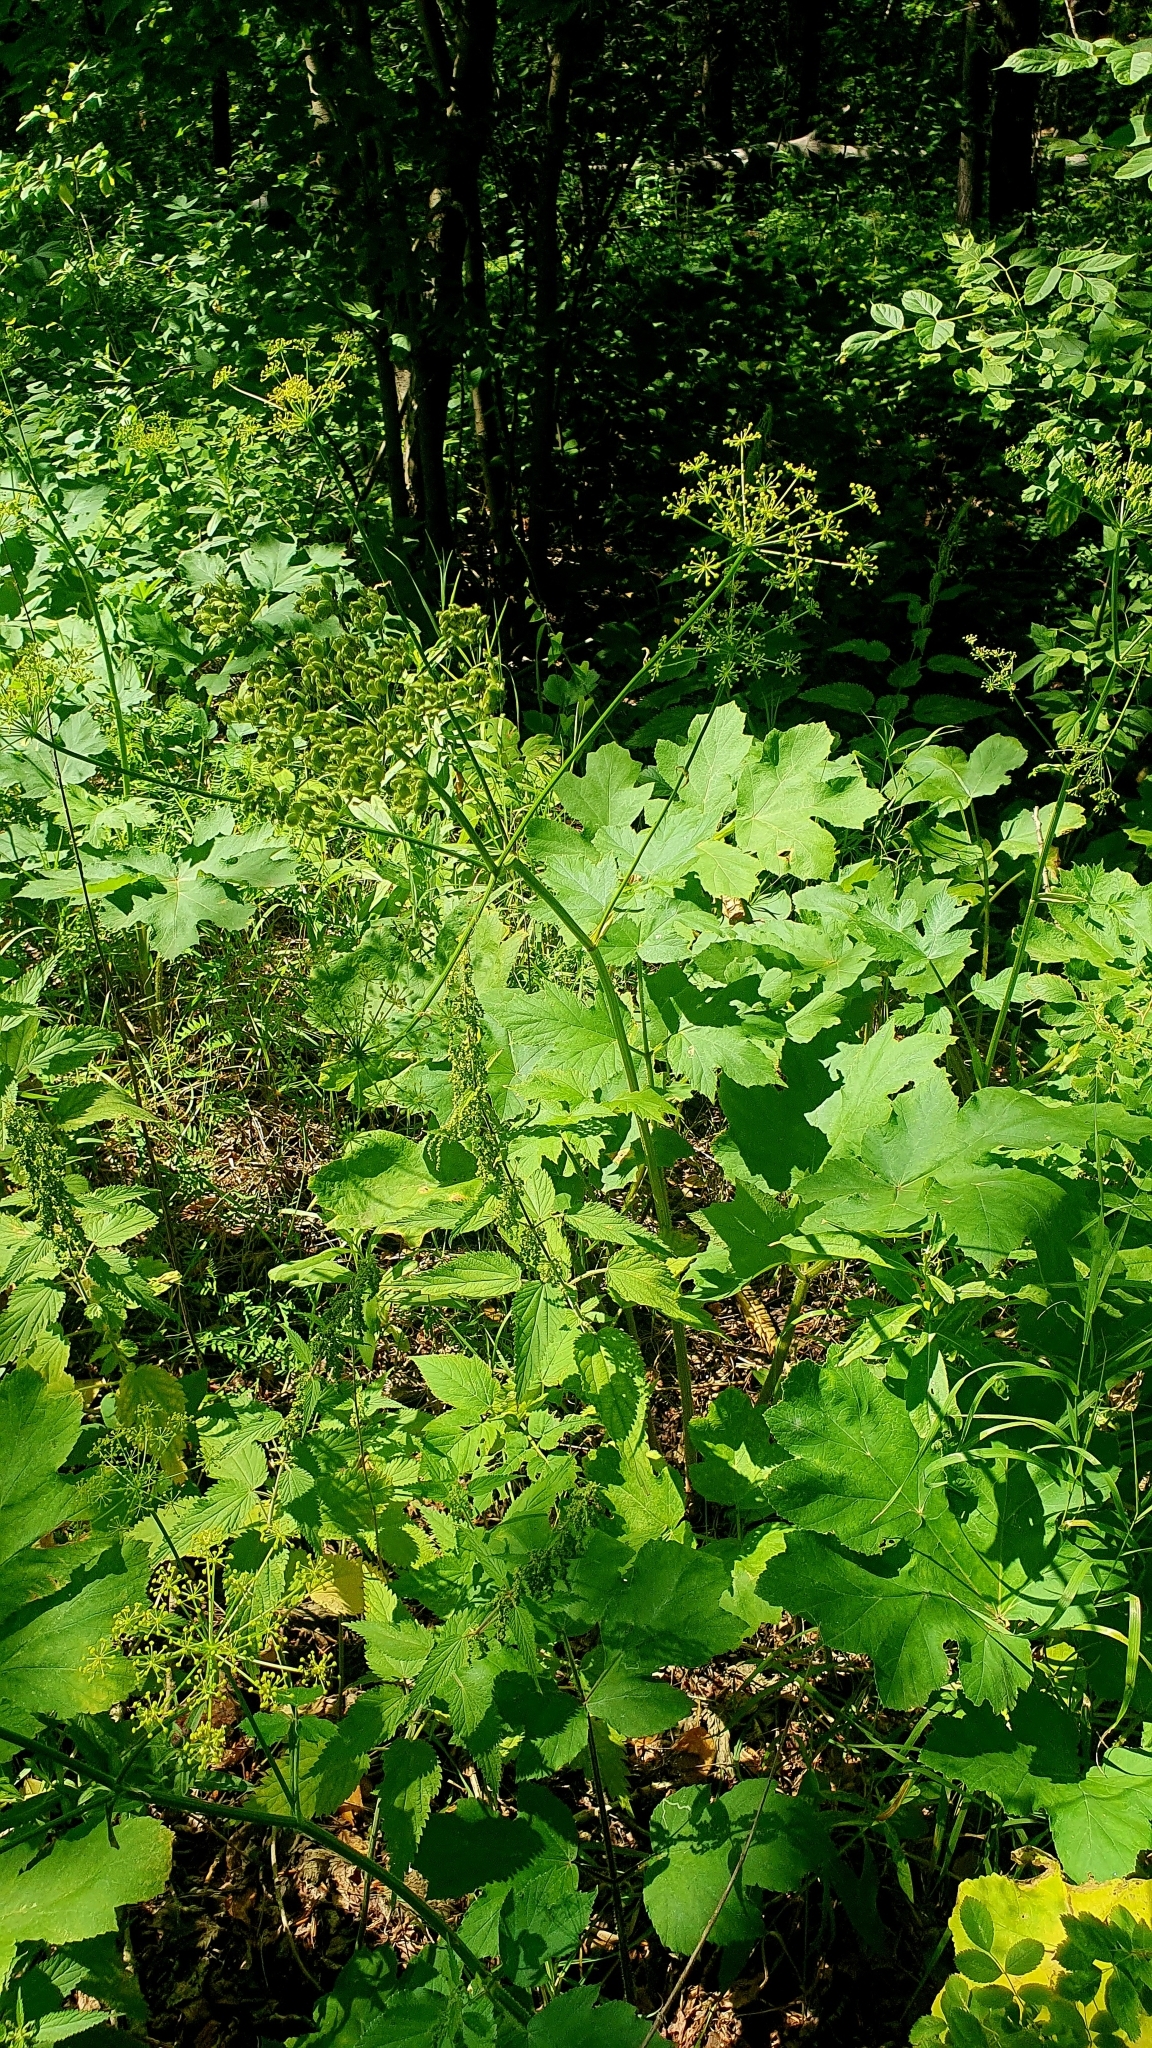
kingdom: Plantae
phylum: Tracheophyta
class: Magnoliopsida
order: Apiales
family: Apiaceae
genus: Heracleum
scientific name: Heracleum sphondylium
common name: Hogweed
